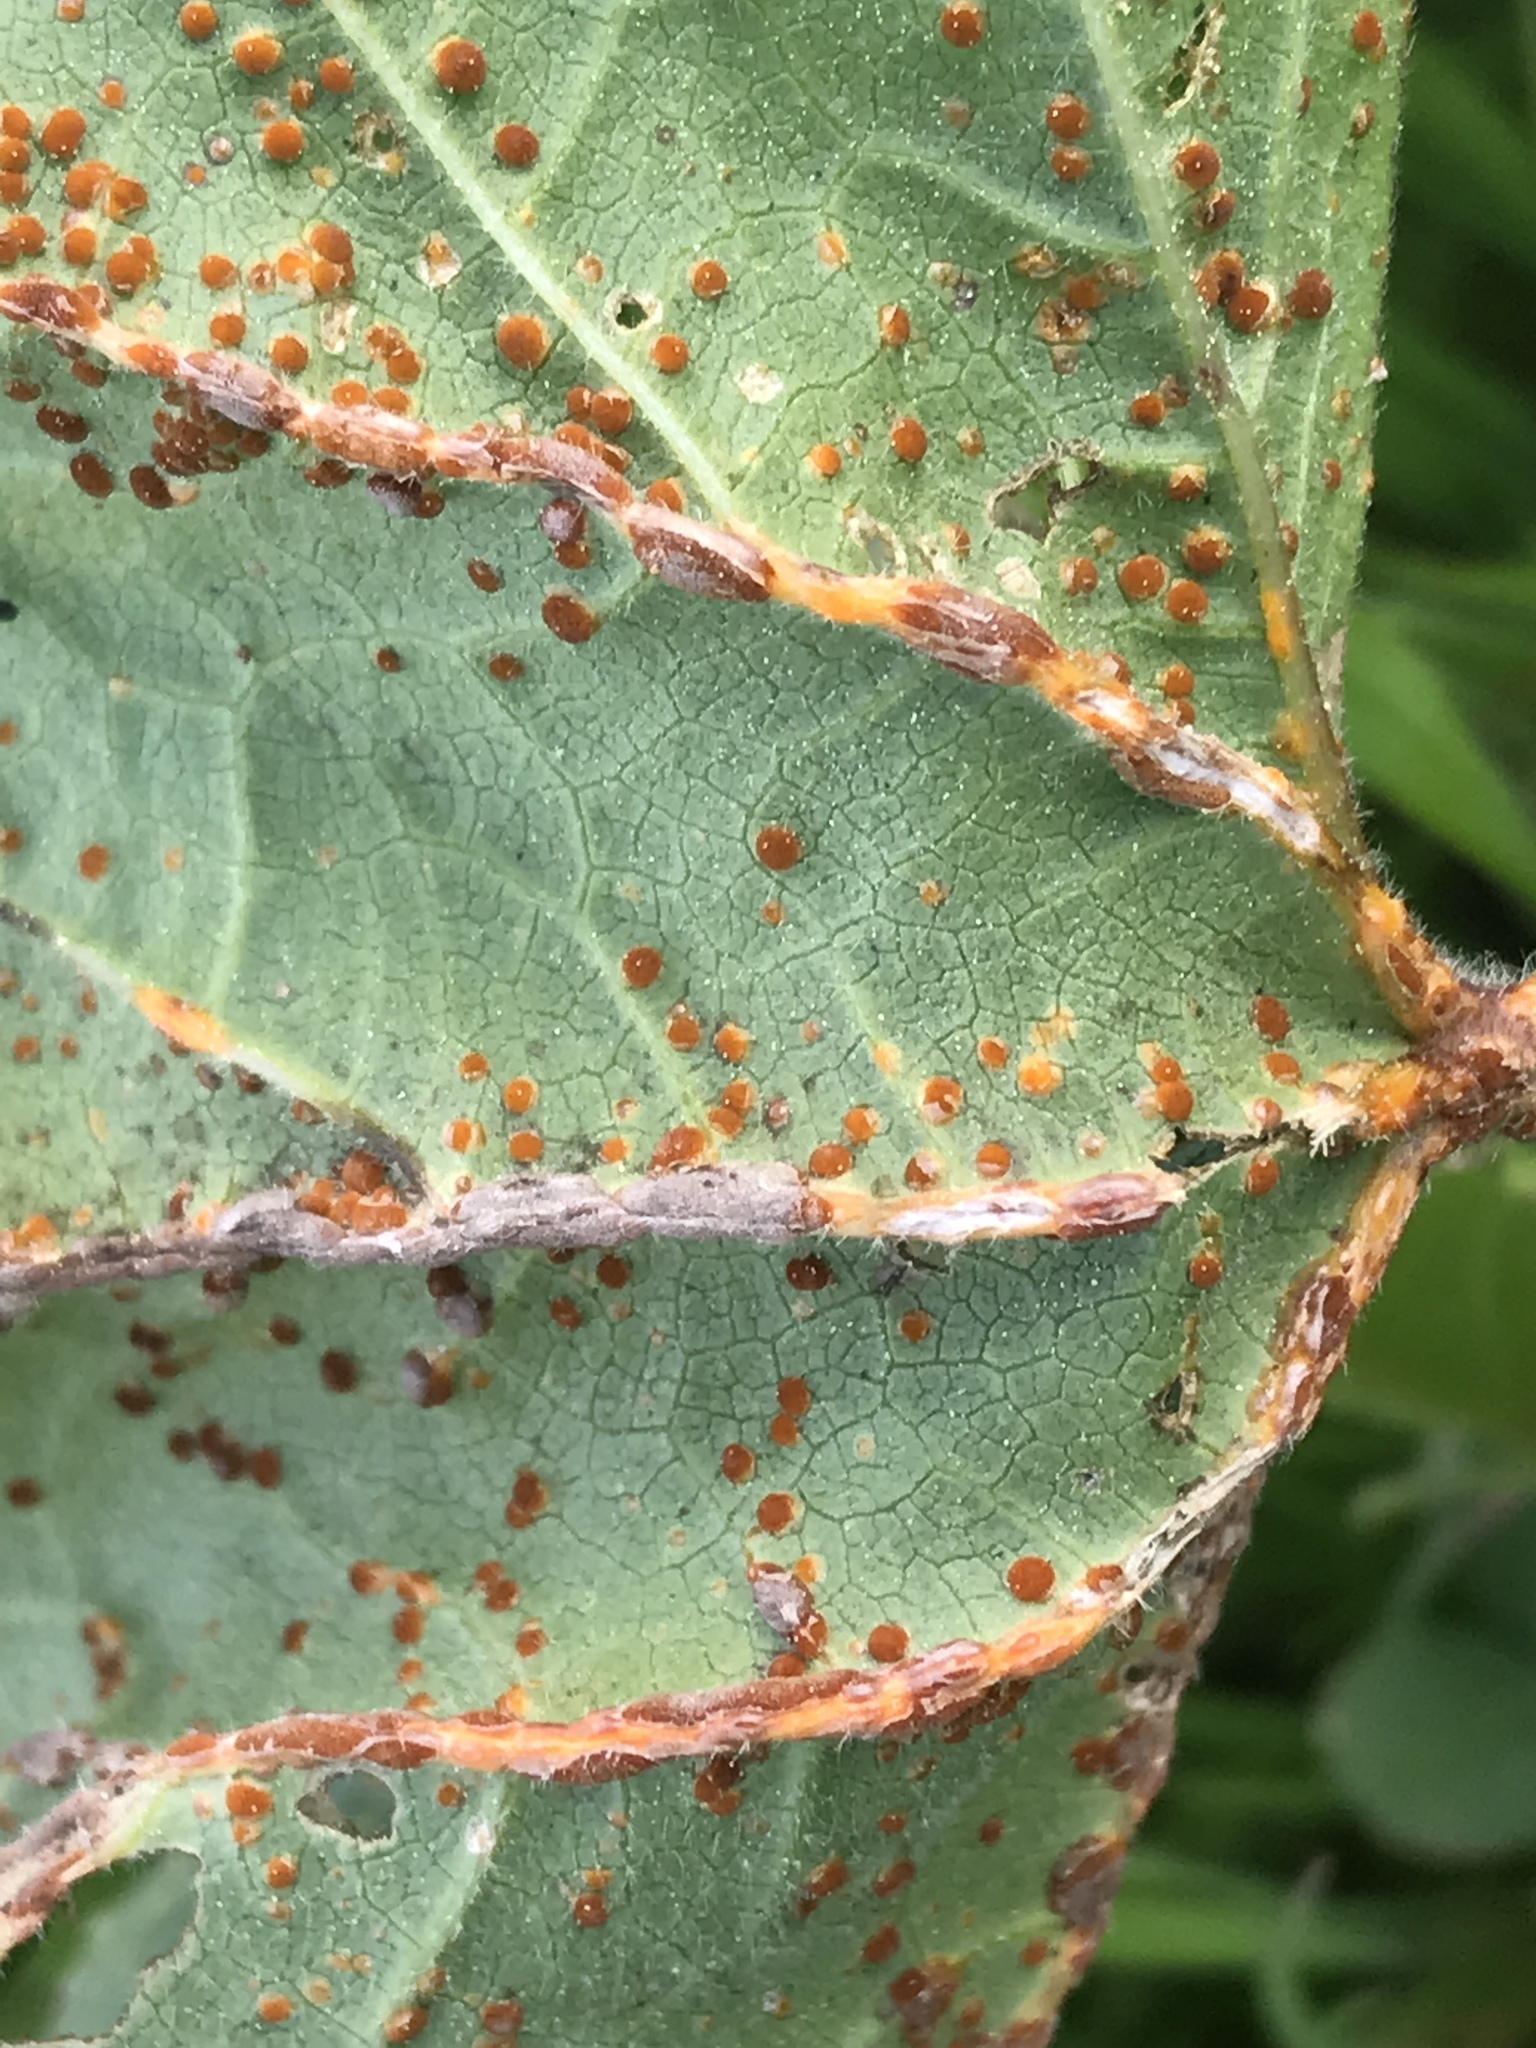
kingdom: Fungi
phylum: Basidiomycota
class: Pucciniomycetes
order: Pucciniales
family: Pucciniaceae
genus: Puccinia
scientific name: Puccinia malvacearum
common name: Hollyhock rust
